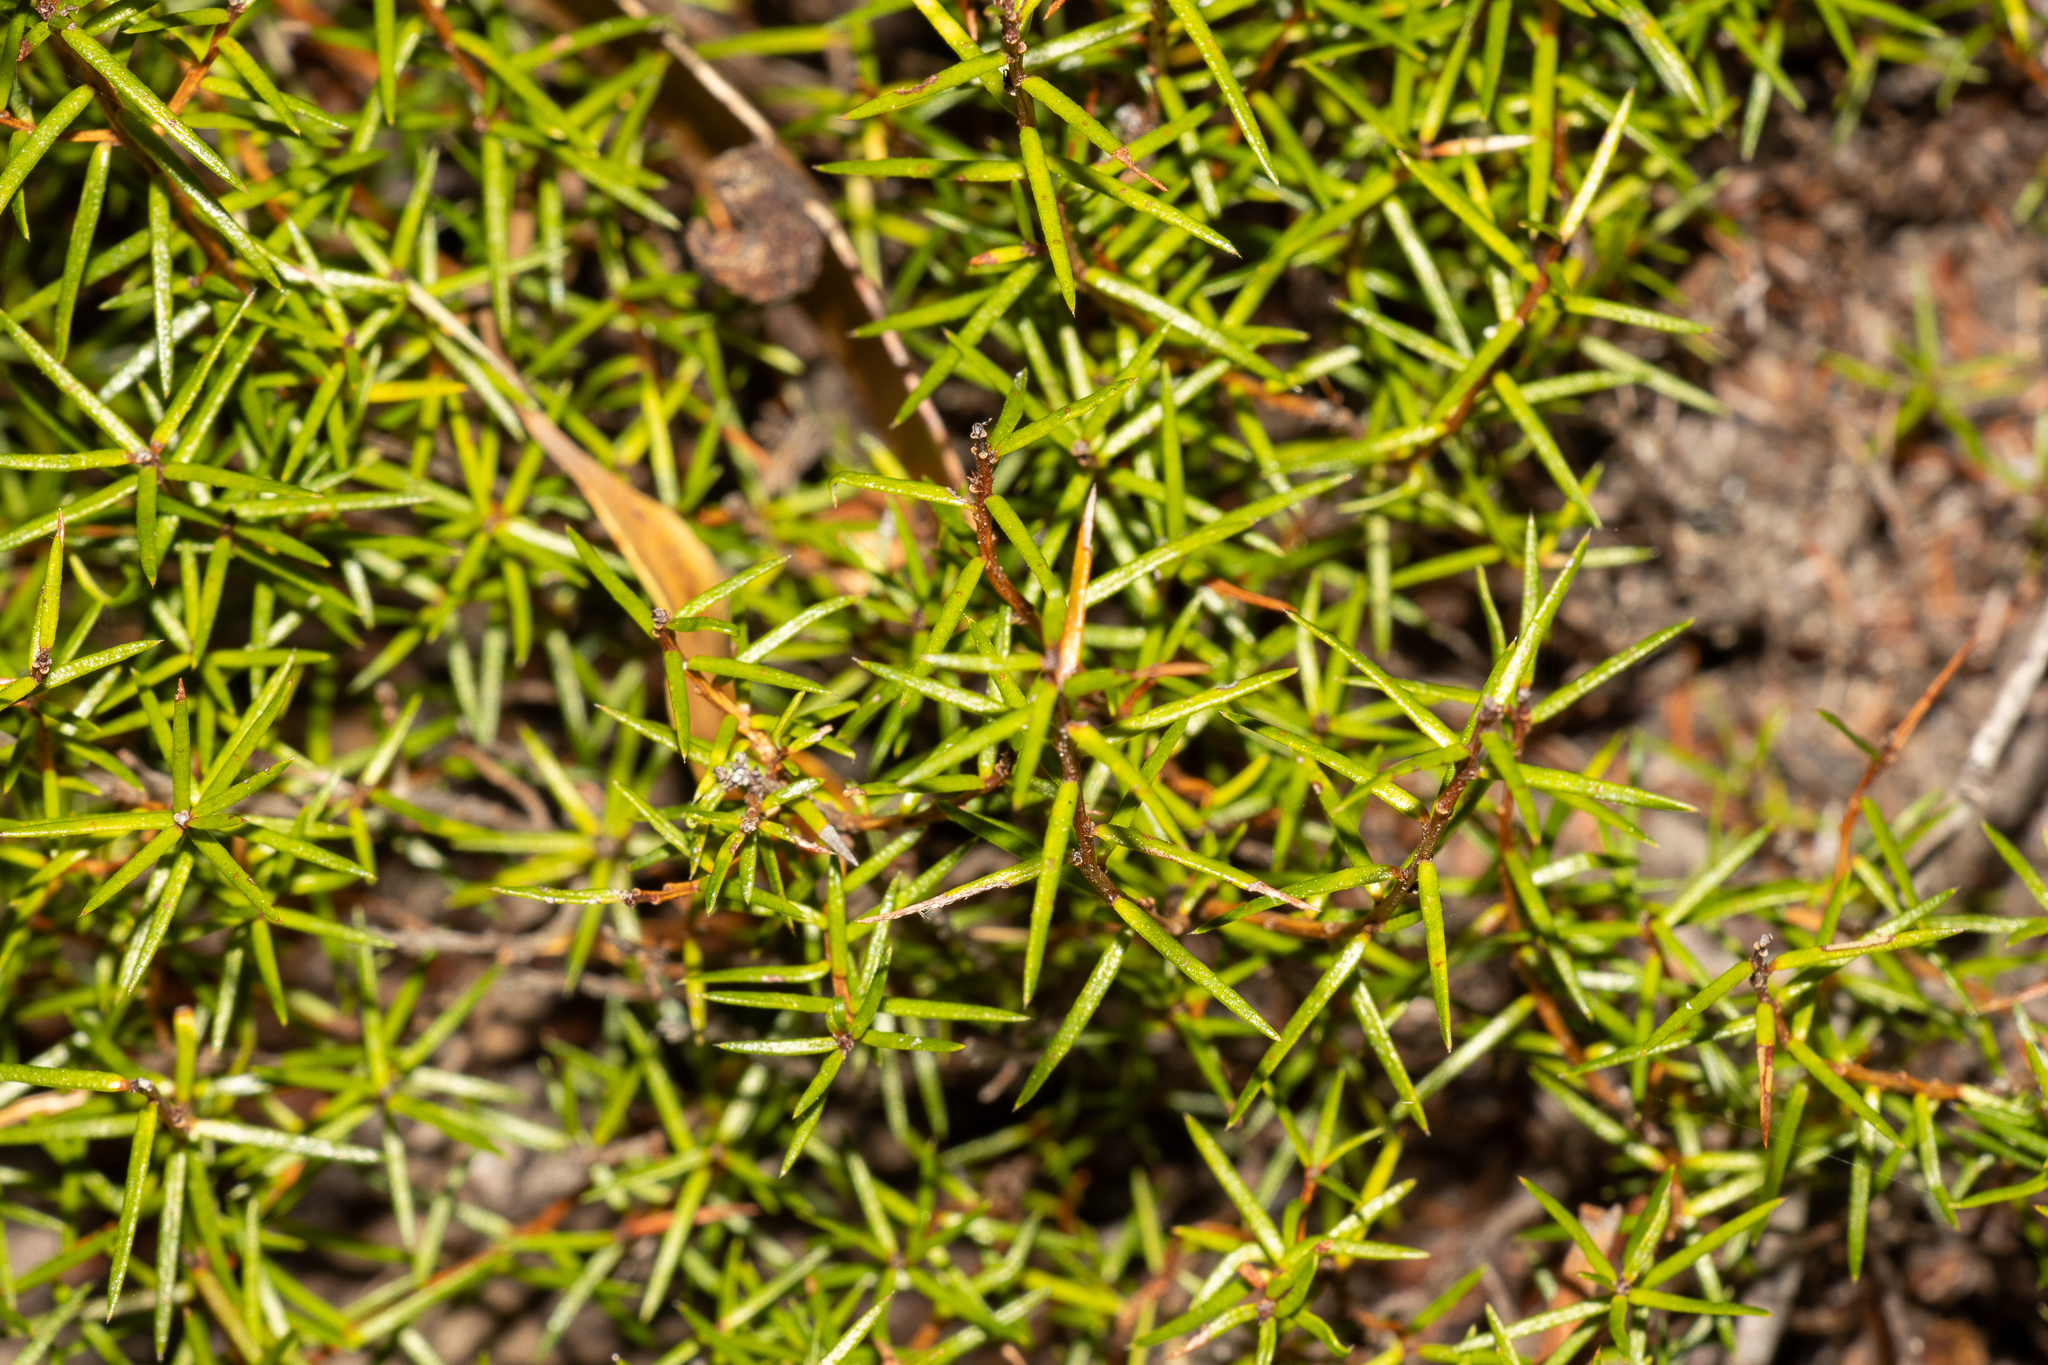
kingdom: Plantae
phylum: Tracheophyta
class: Magnoliopsida
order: Dilleniales
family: Dilleniaceae
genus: Hibbertia
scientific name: Hibbertia exutiacies
